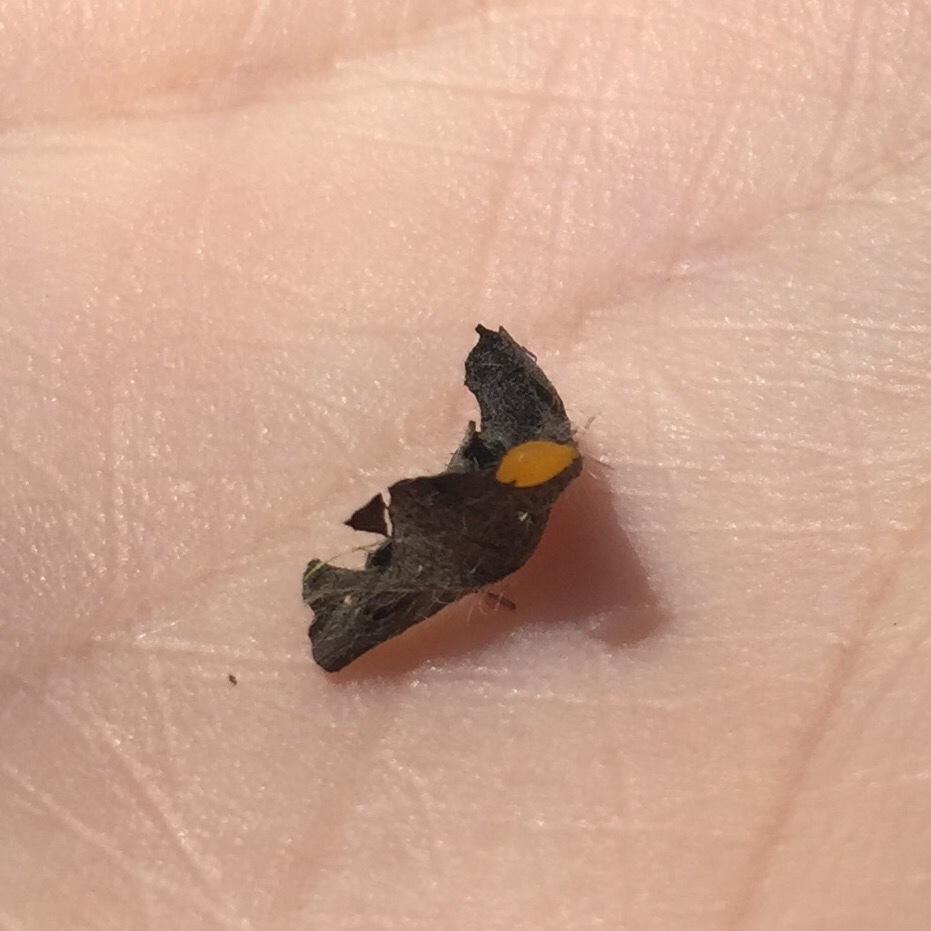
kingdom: Animalia
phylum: Arthropoda
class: Insecta
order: Hemiptera
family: Aphididae
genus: Aphis
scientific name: Aphis nerii
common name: Oleander aphid
